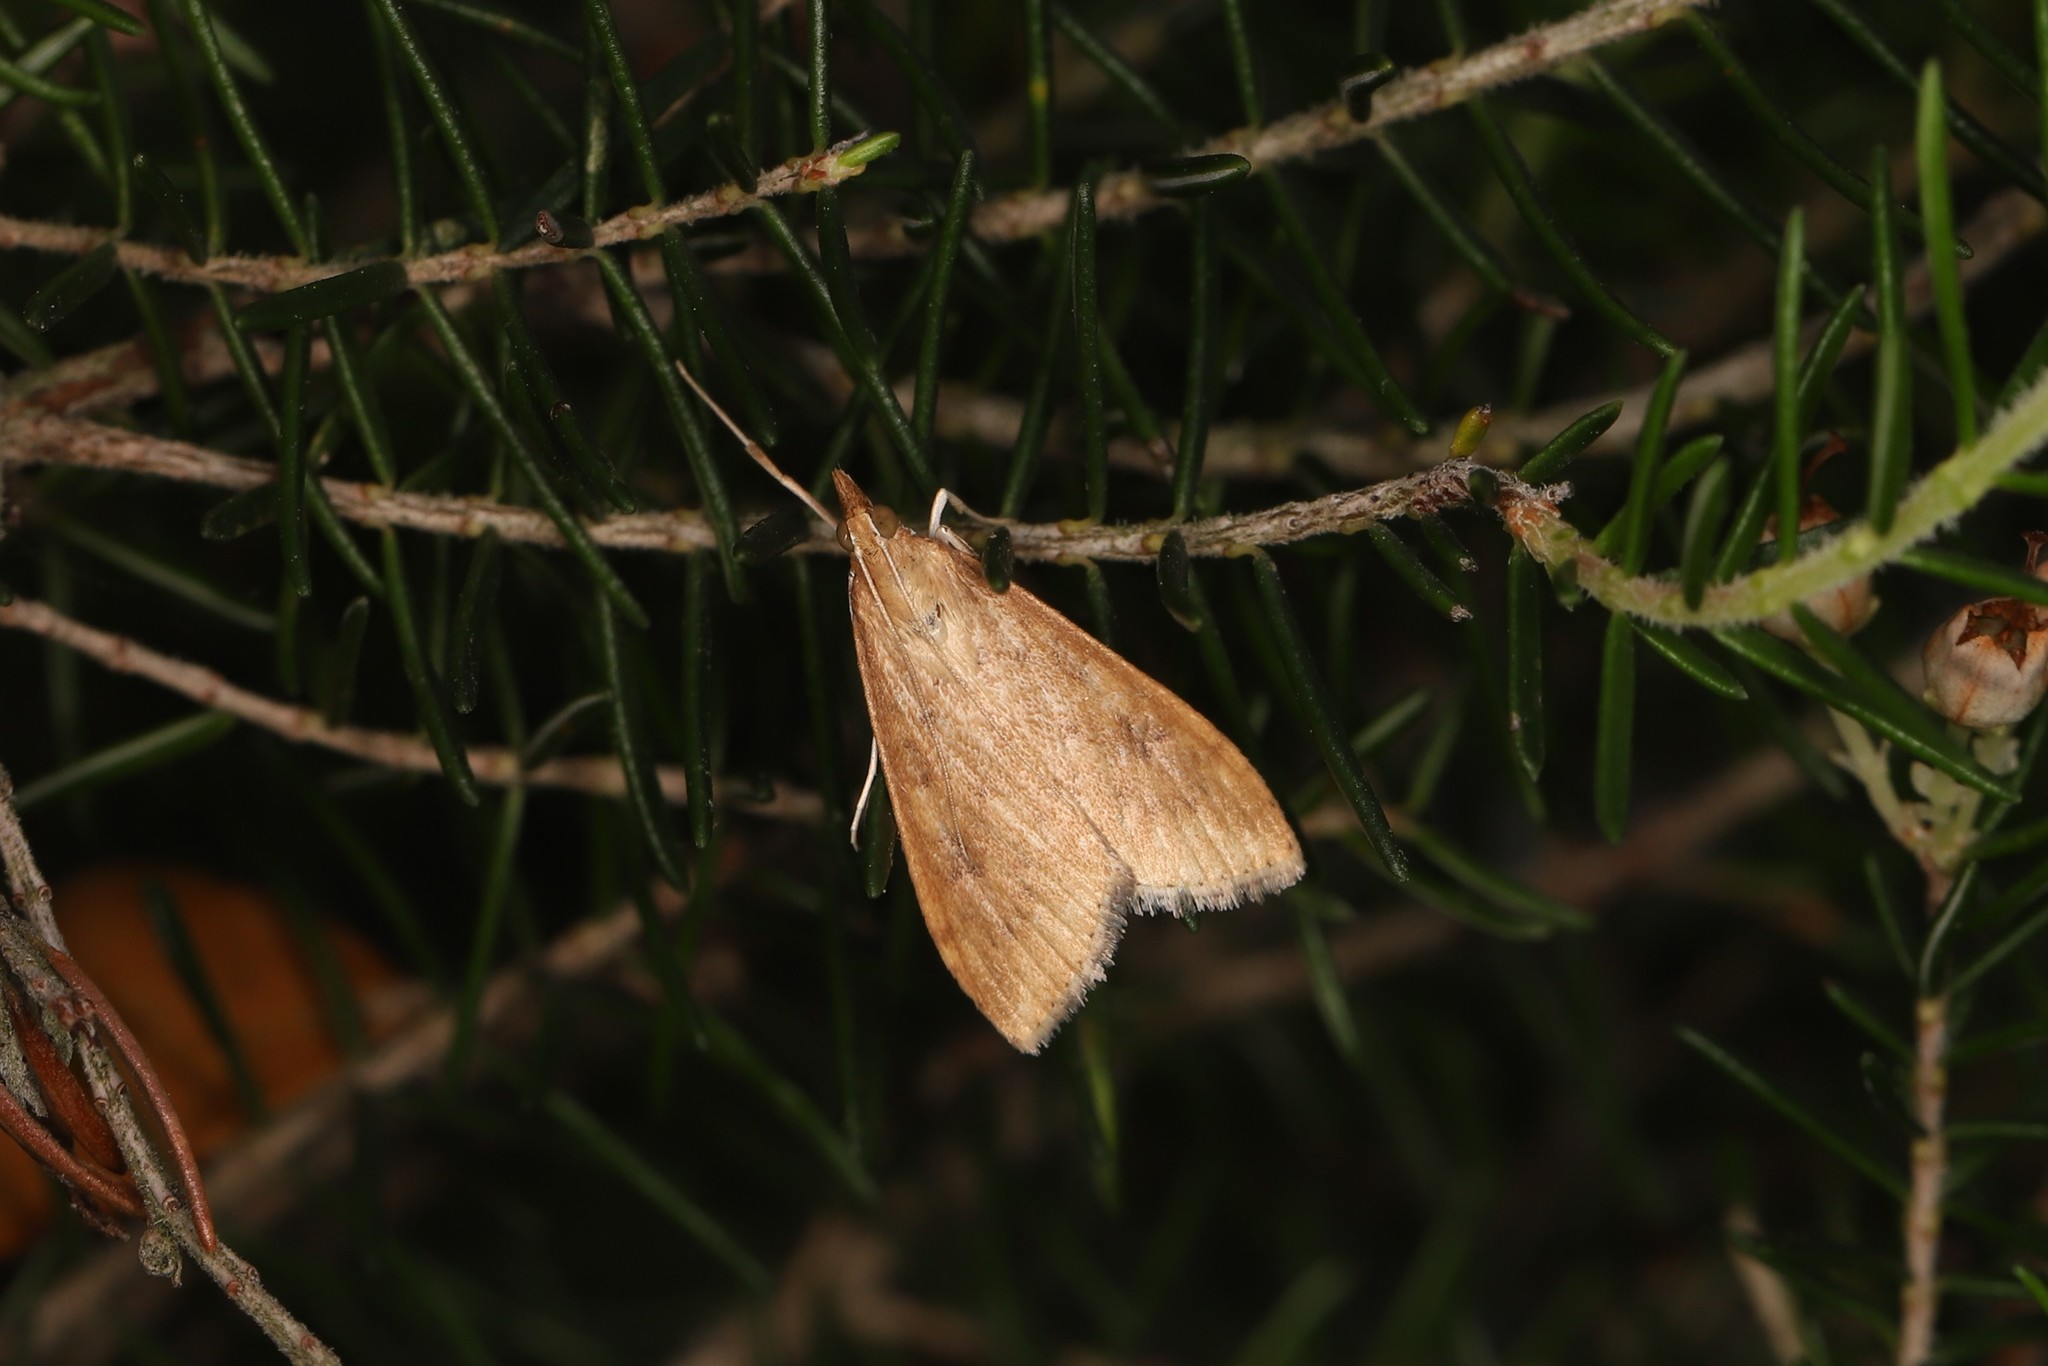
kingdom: Animalia
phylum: Arthropoda
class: Insecta
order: Lepidoptera
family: Crambidae
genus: Udea
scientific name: Udea ferrugalis
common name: Rusty dot
